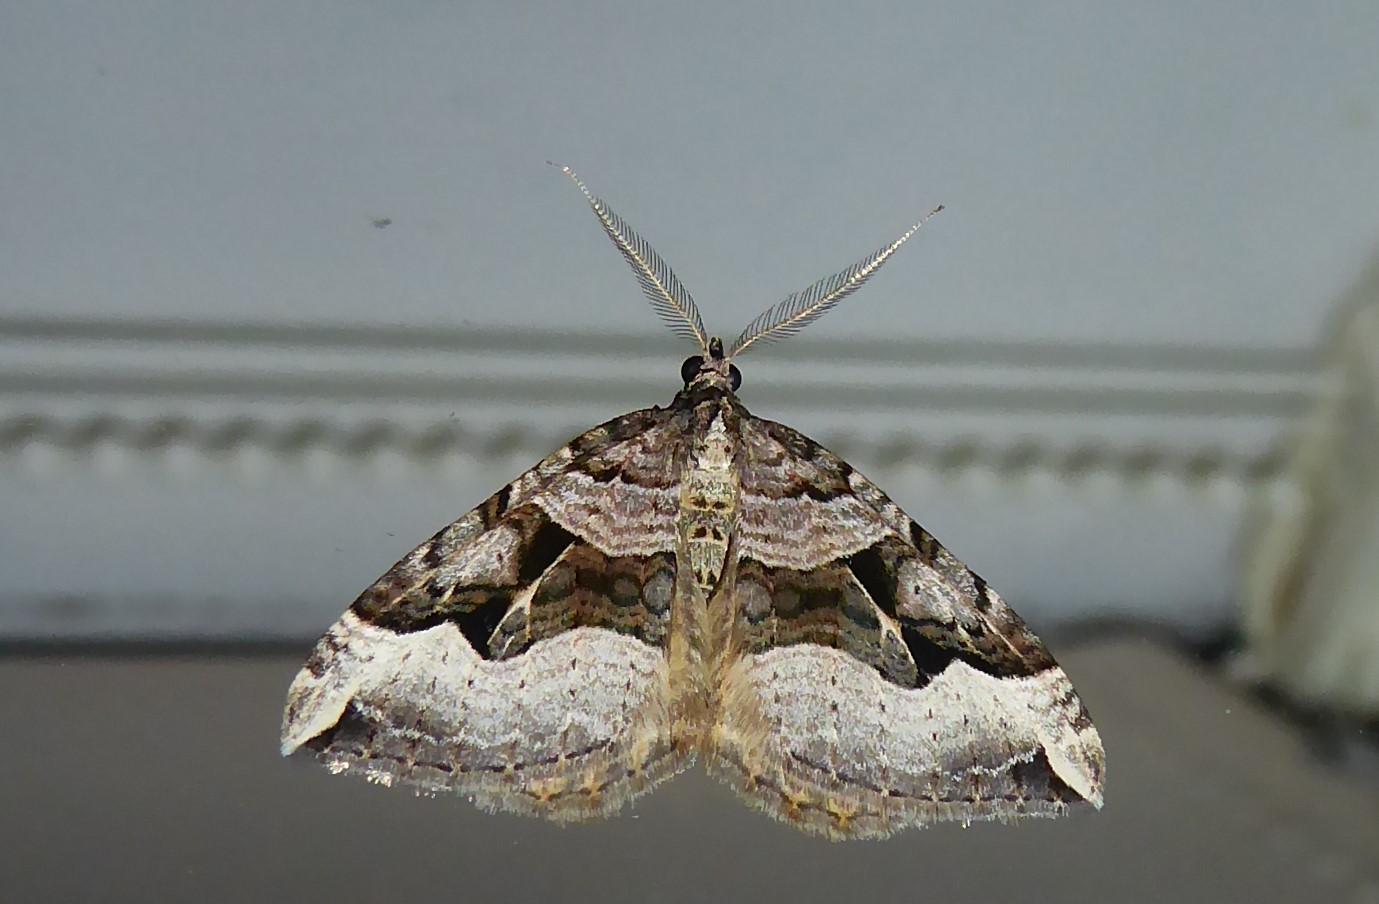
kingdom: Animalia
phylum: Arthropoda
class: Insecta
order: Lepidoptera
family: Geometridae
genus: Xanthorhoe
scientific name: Xanthorhoe semifissata
